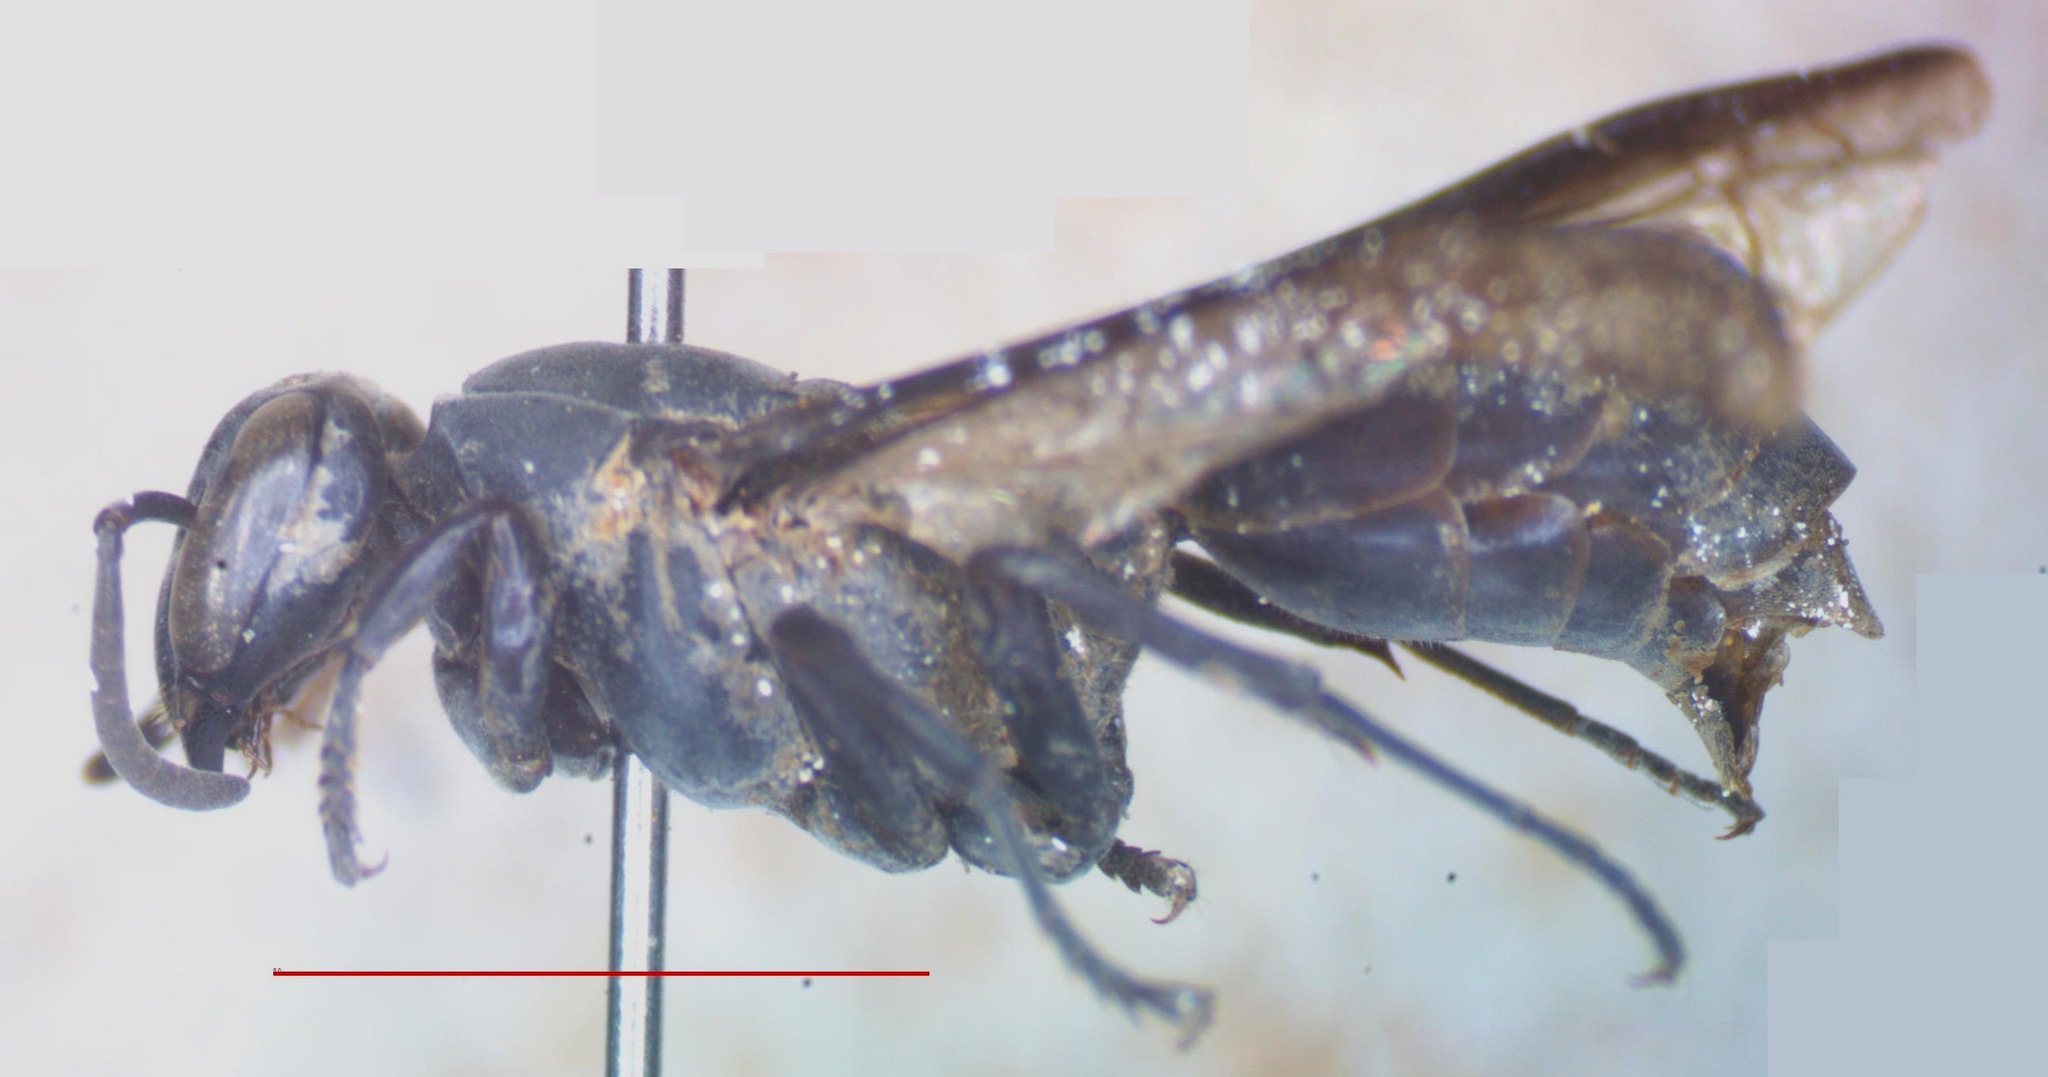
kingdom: Animalia
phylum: Arthropoda
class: Insecta
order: Hymenoptera
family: Eumenidae
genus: Polybia
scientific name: Polybia simillima
